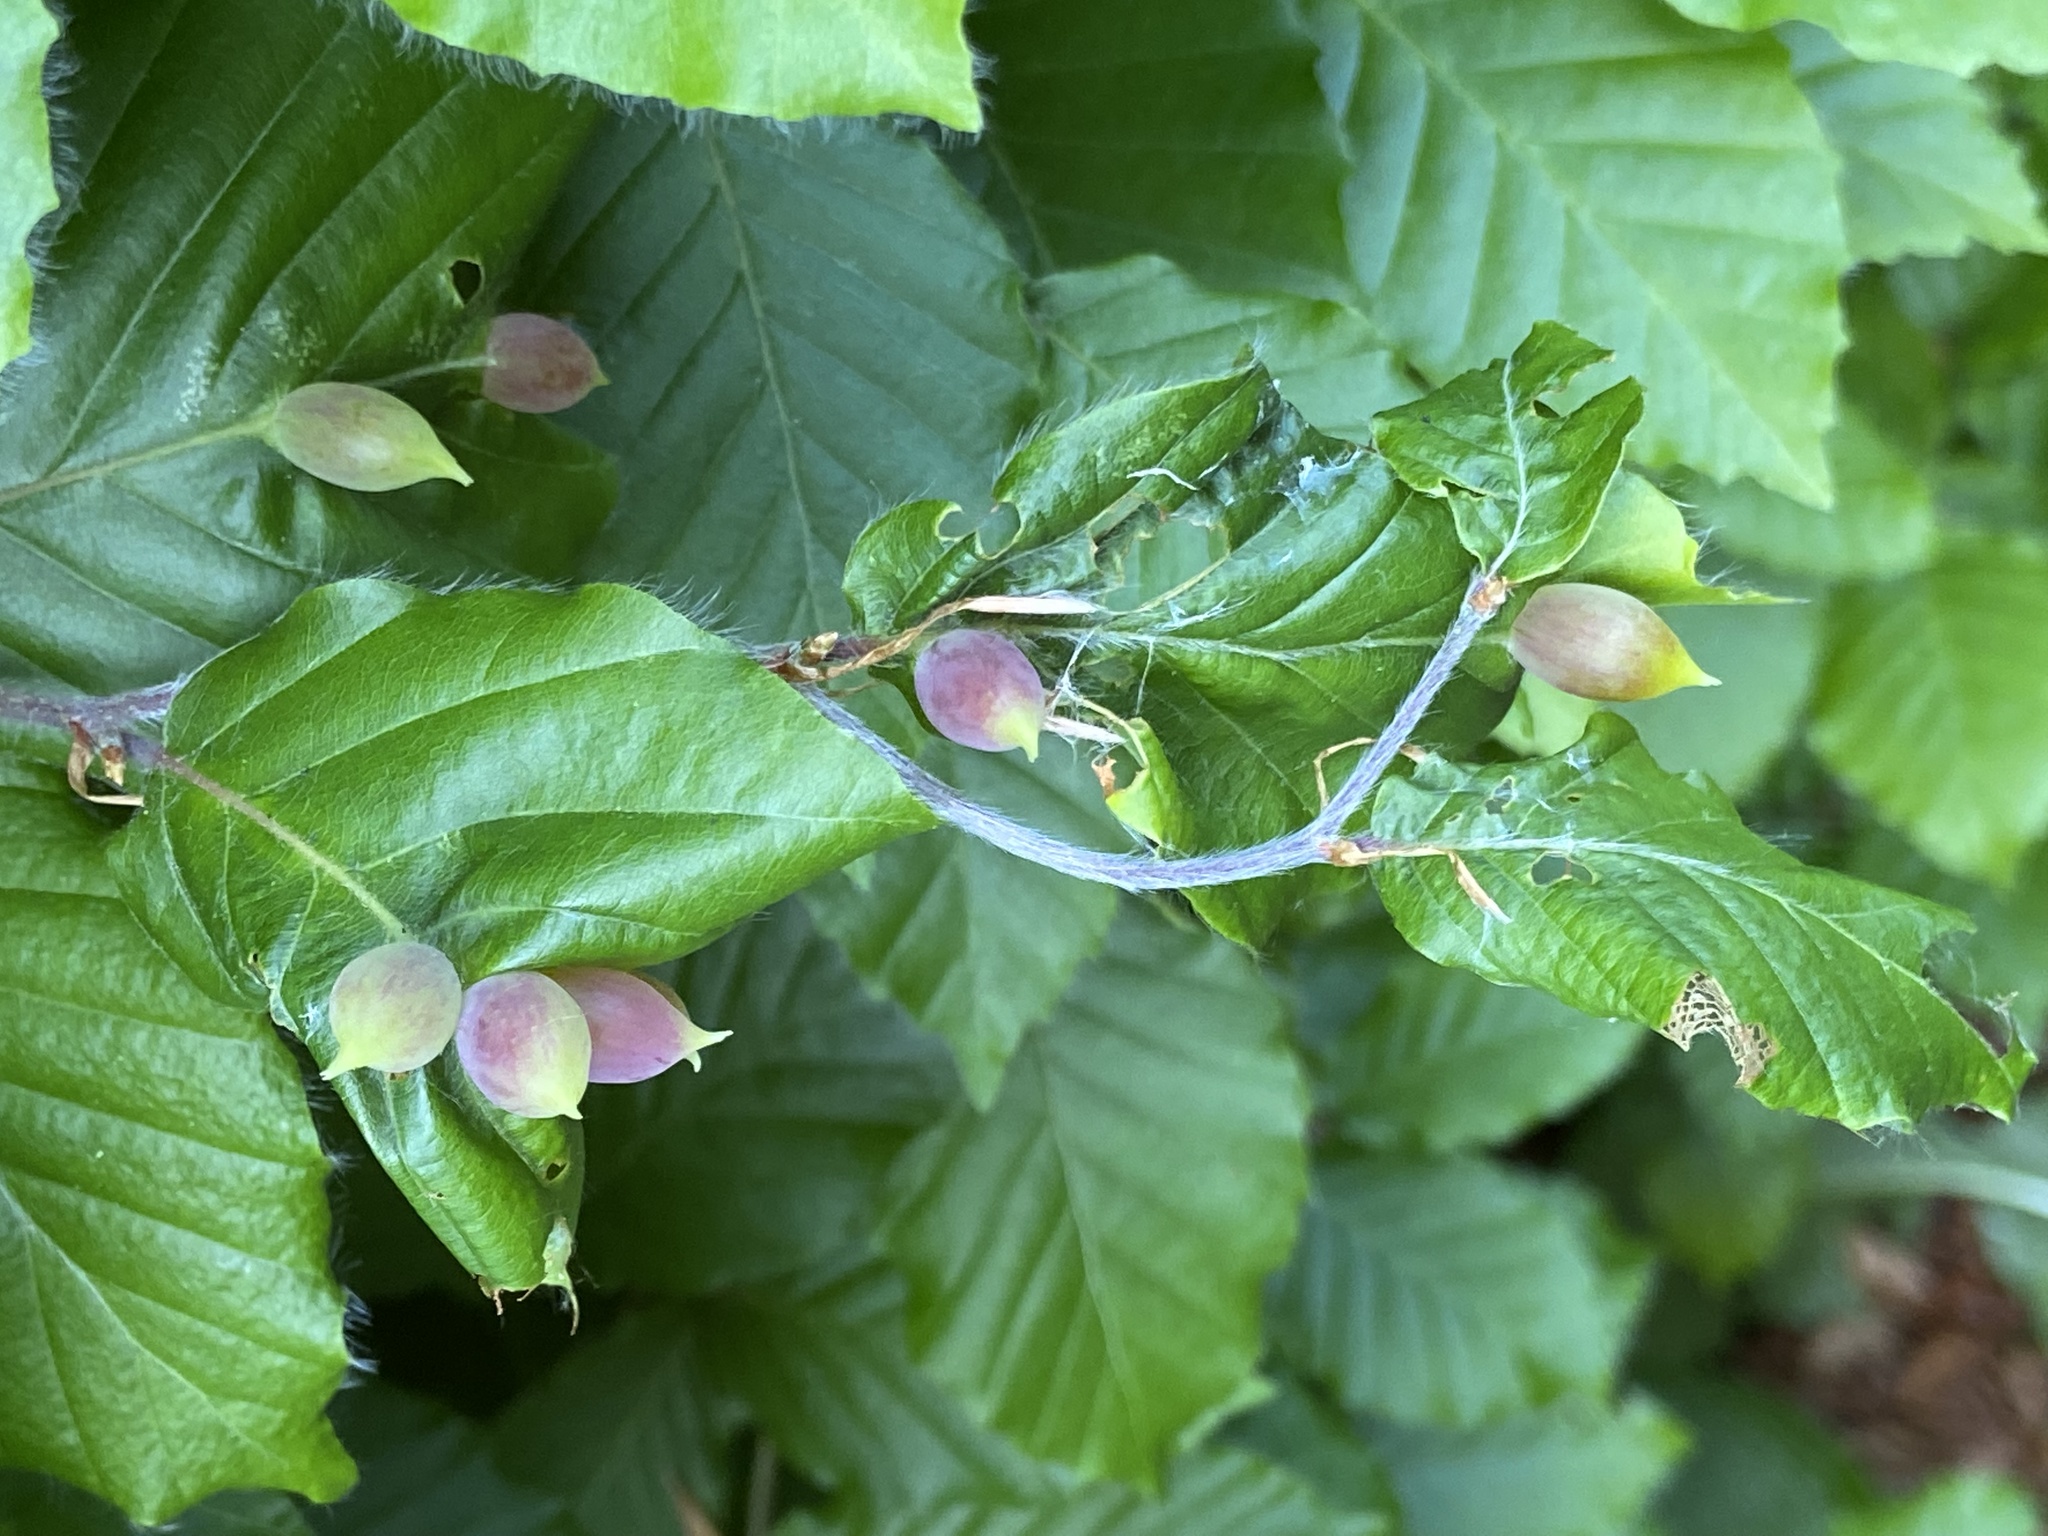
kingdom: Animalia
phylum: Arthropoda
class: Insecta
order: Diptera
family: Cecidomyiidae
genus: Mikiola
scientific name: Mikiola fagi
